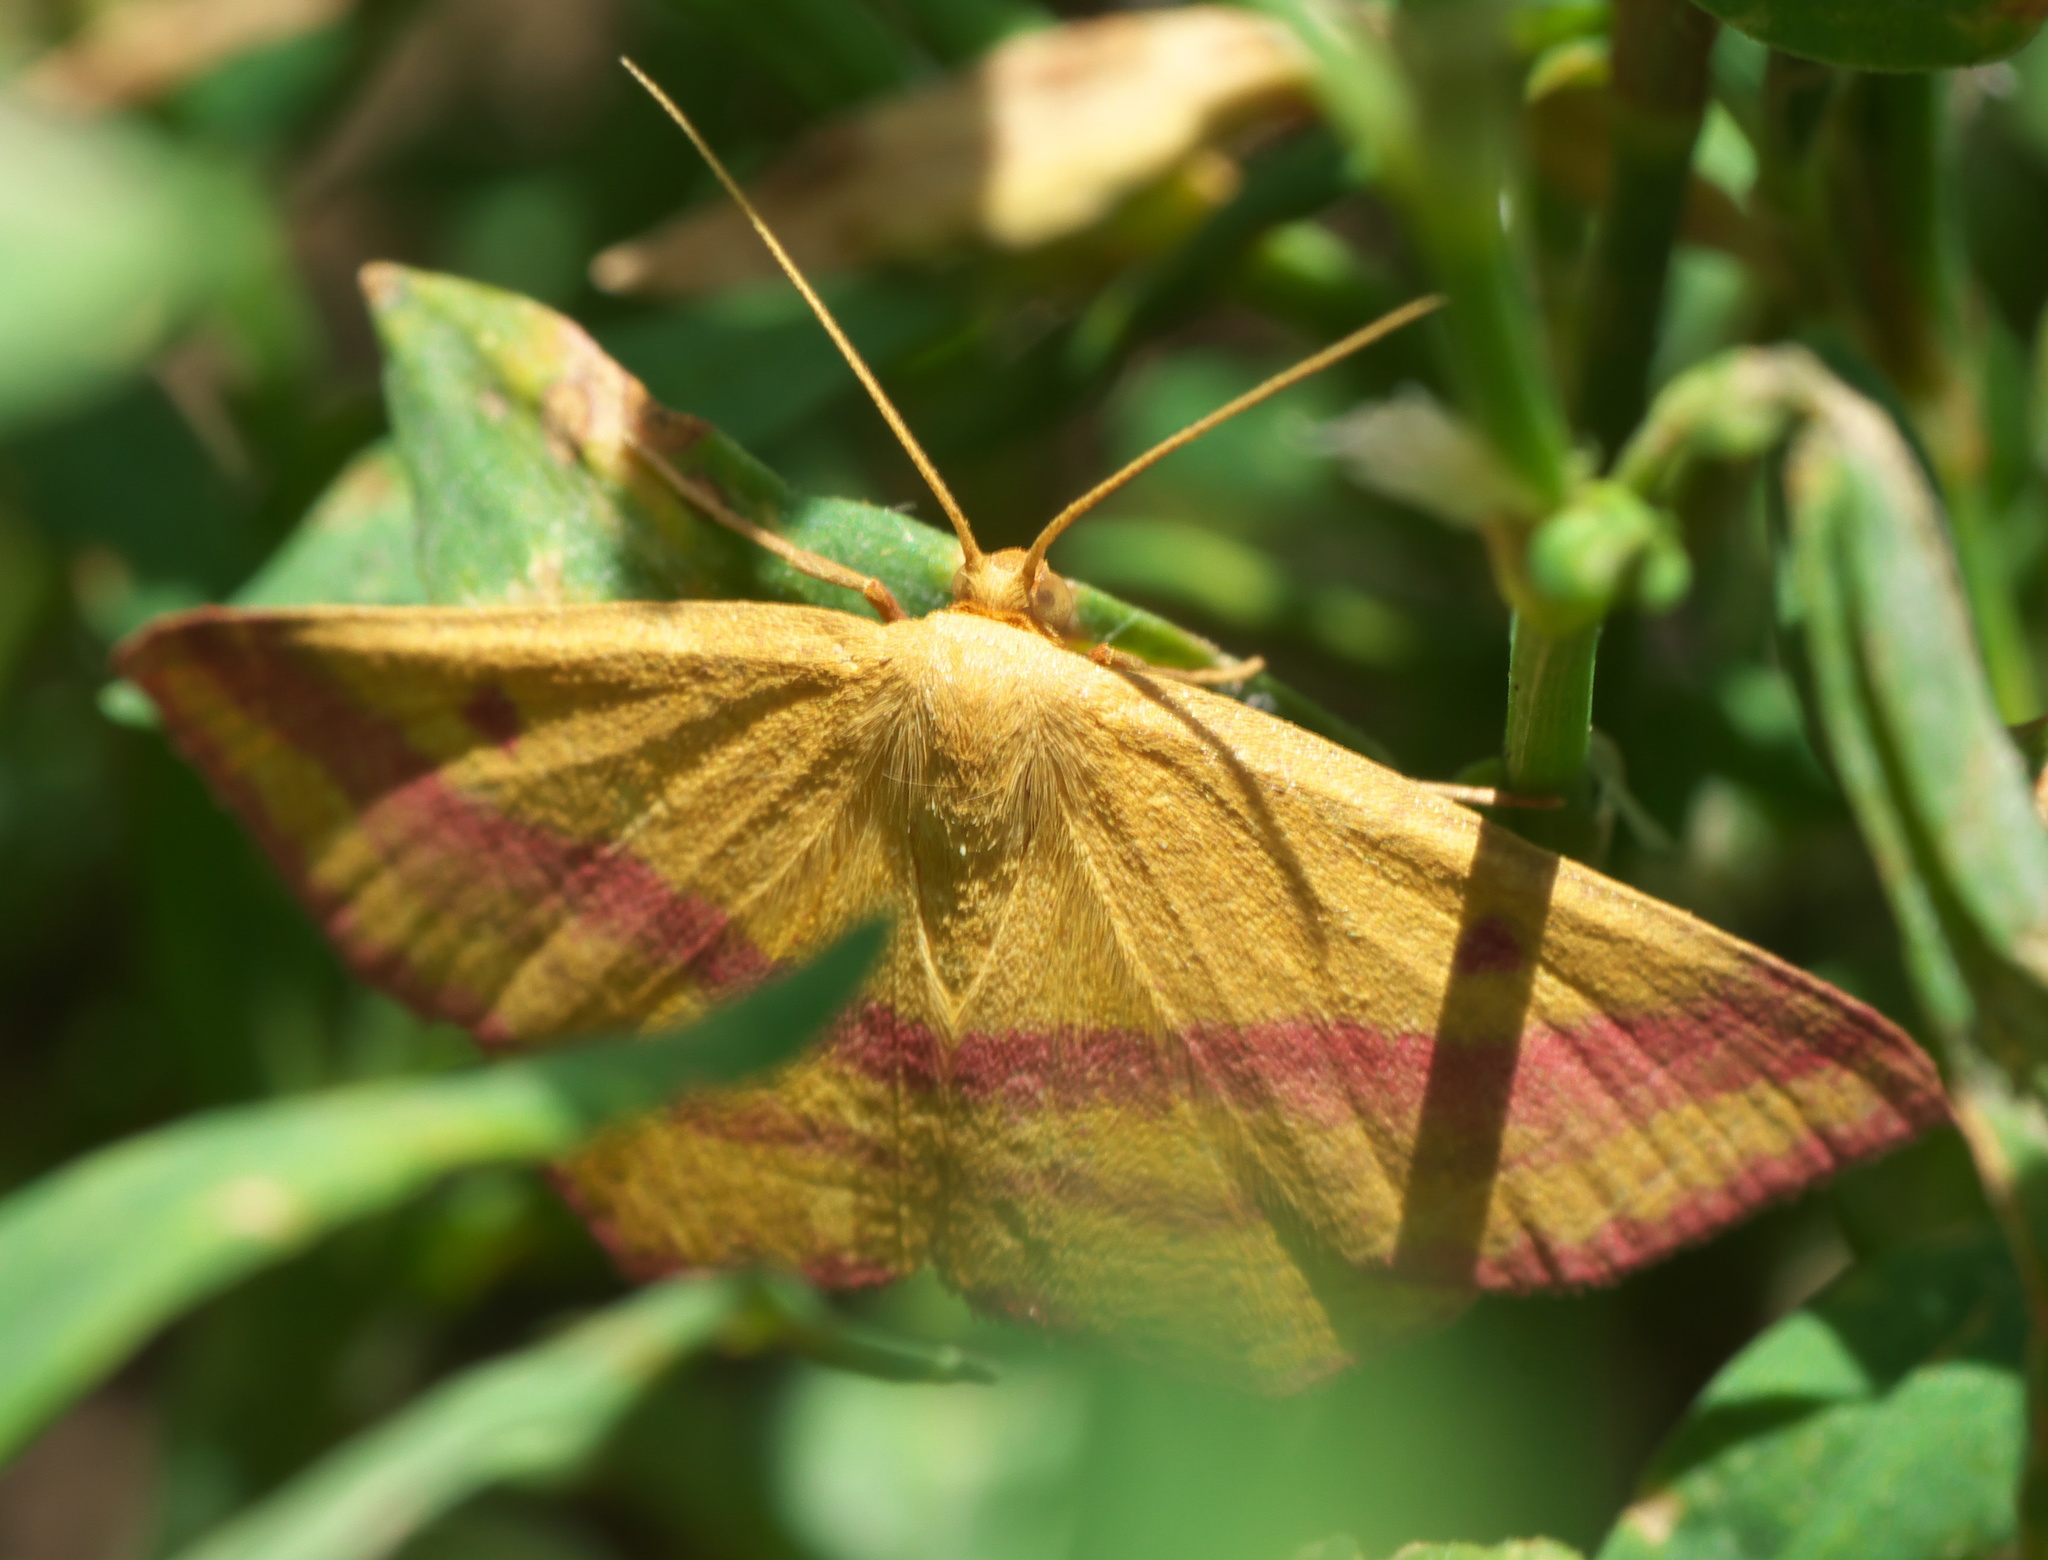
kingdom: Animalia
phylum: Arthropoda
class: Insecta
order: Lepidoptera
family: Geometridae
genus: Haematopis
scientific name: Haematopis grataria
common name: Chickweed geometer
